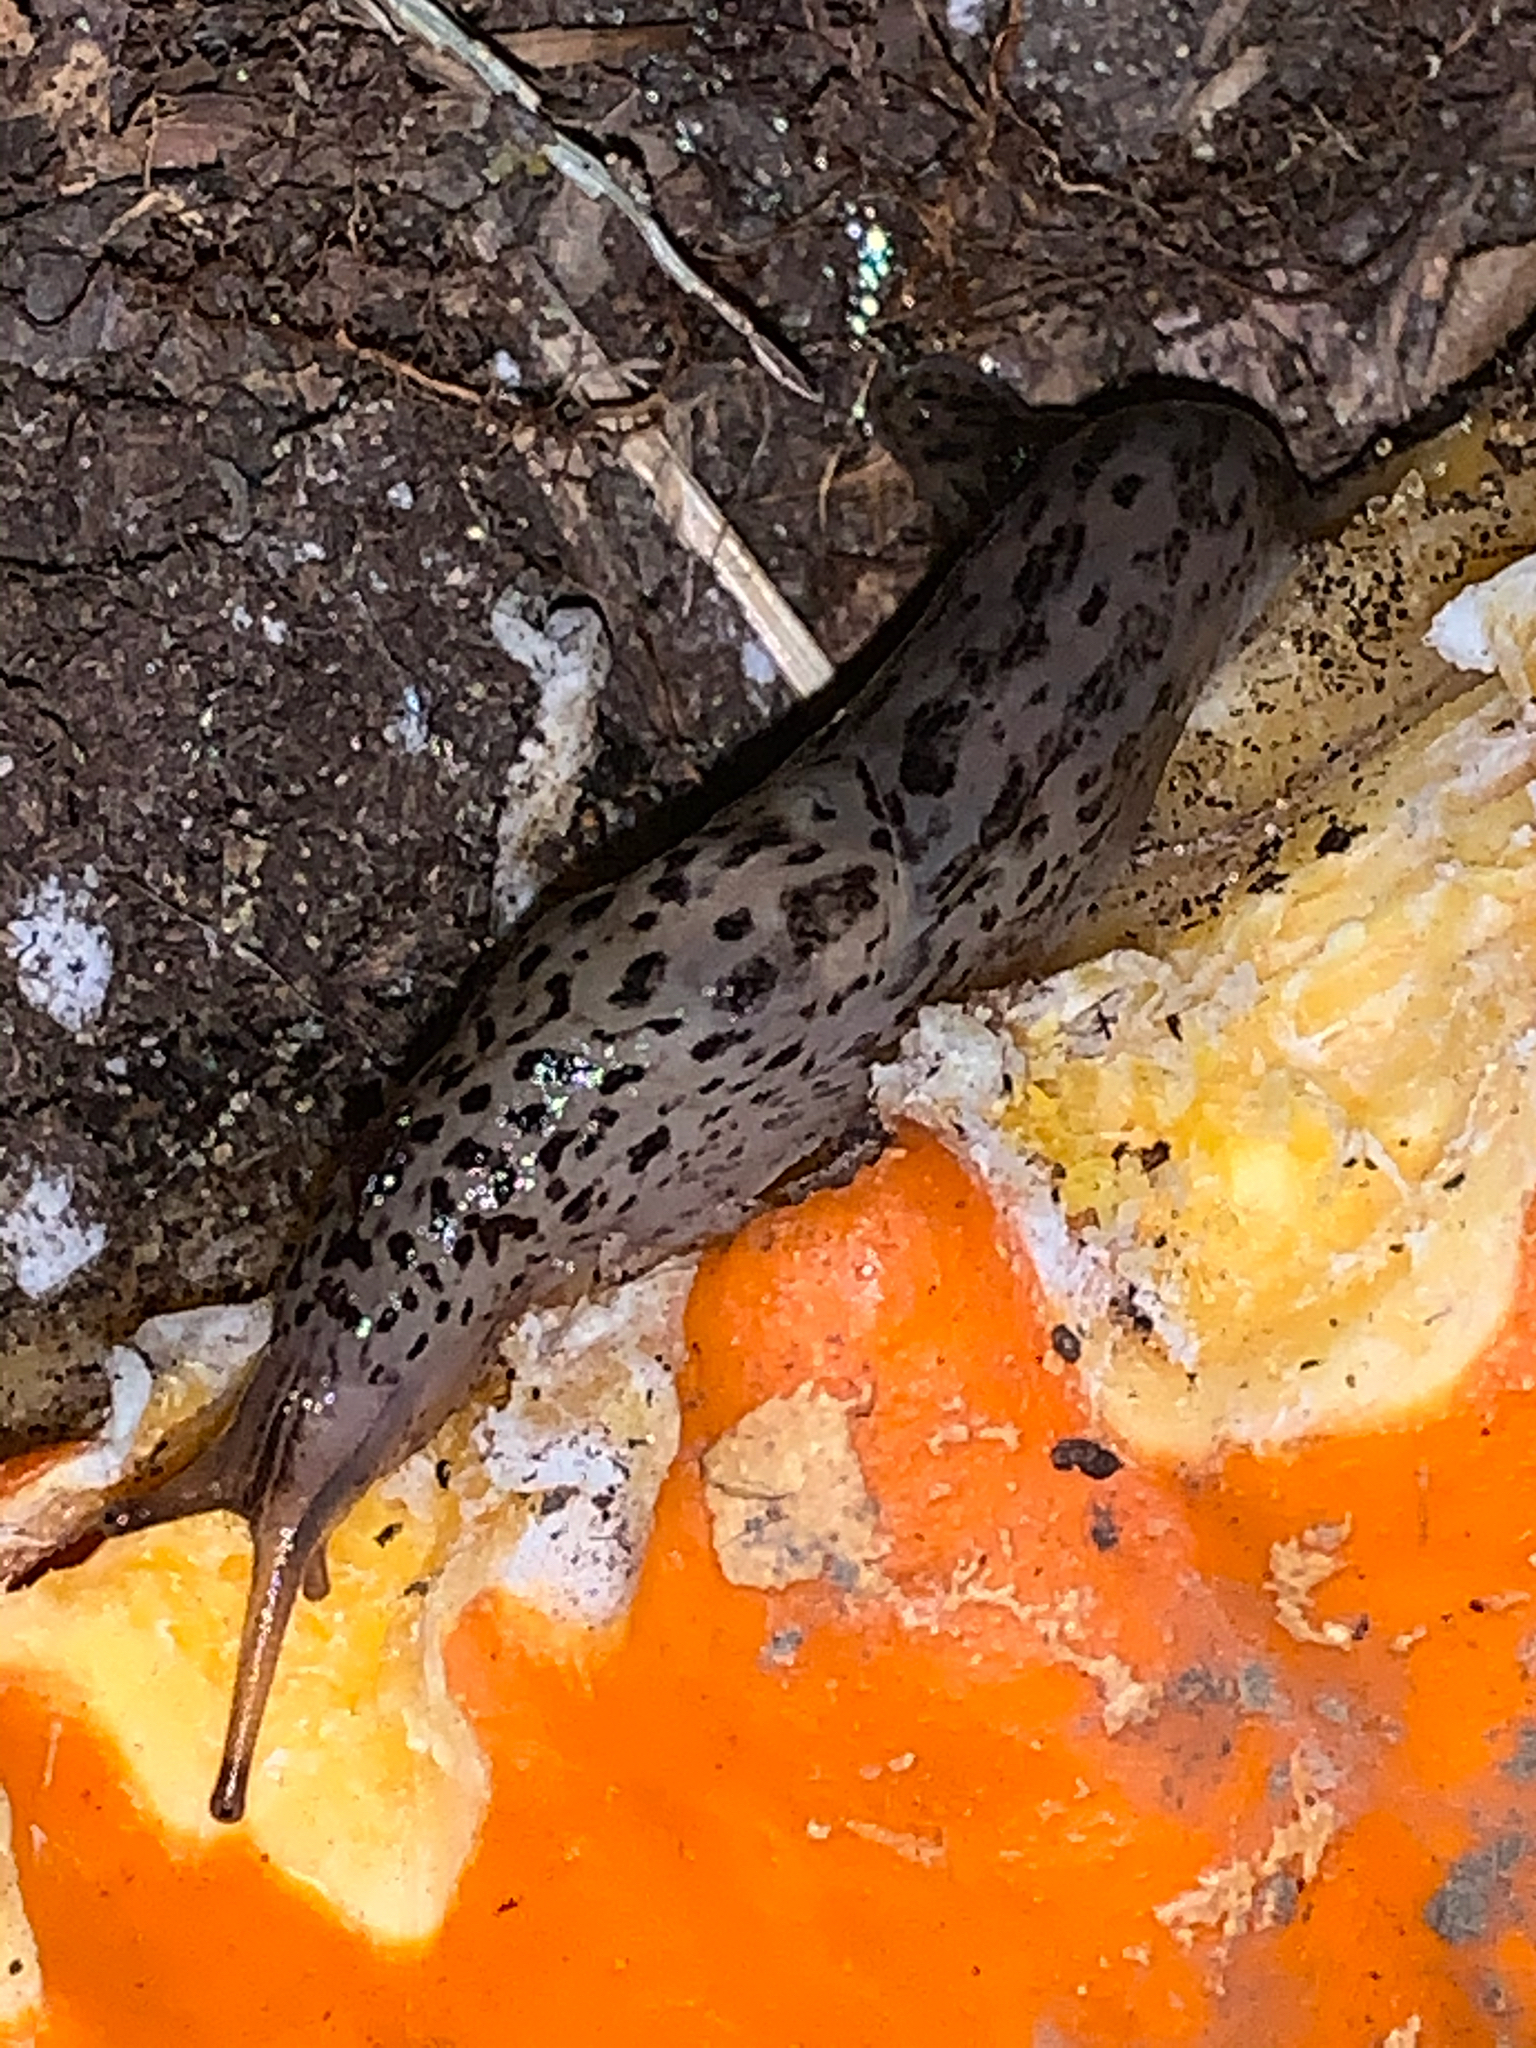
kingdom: Animalia
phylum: Mollusca
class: Gastropoda
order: Stylommatophora
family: Limacidae
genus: Limax
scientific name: Limax maximus
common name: Great grey slug
